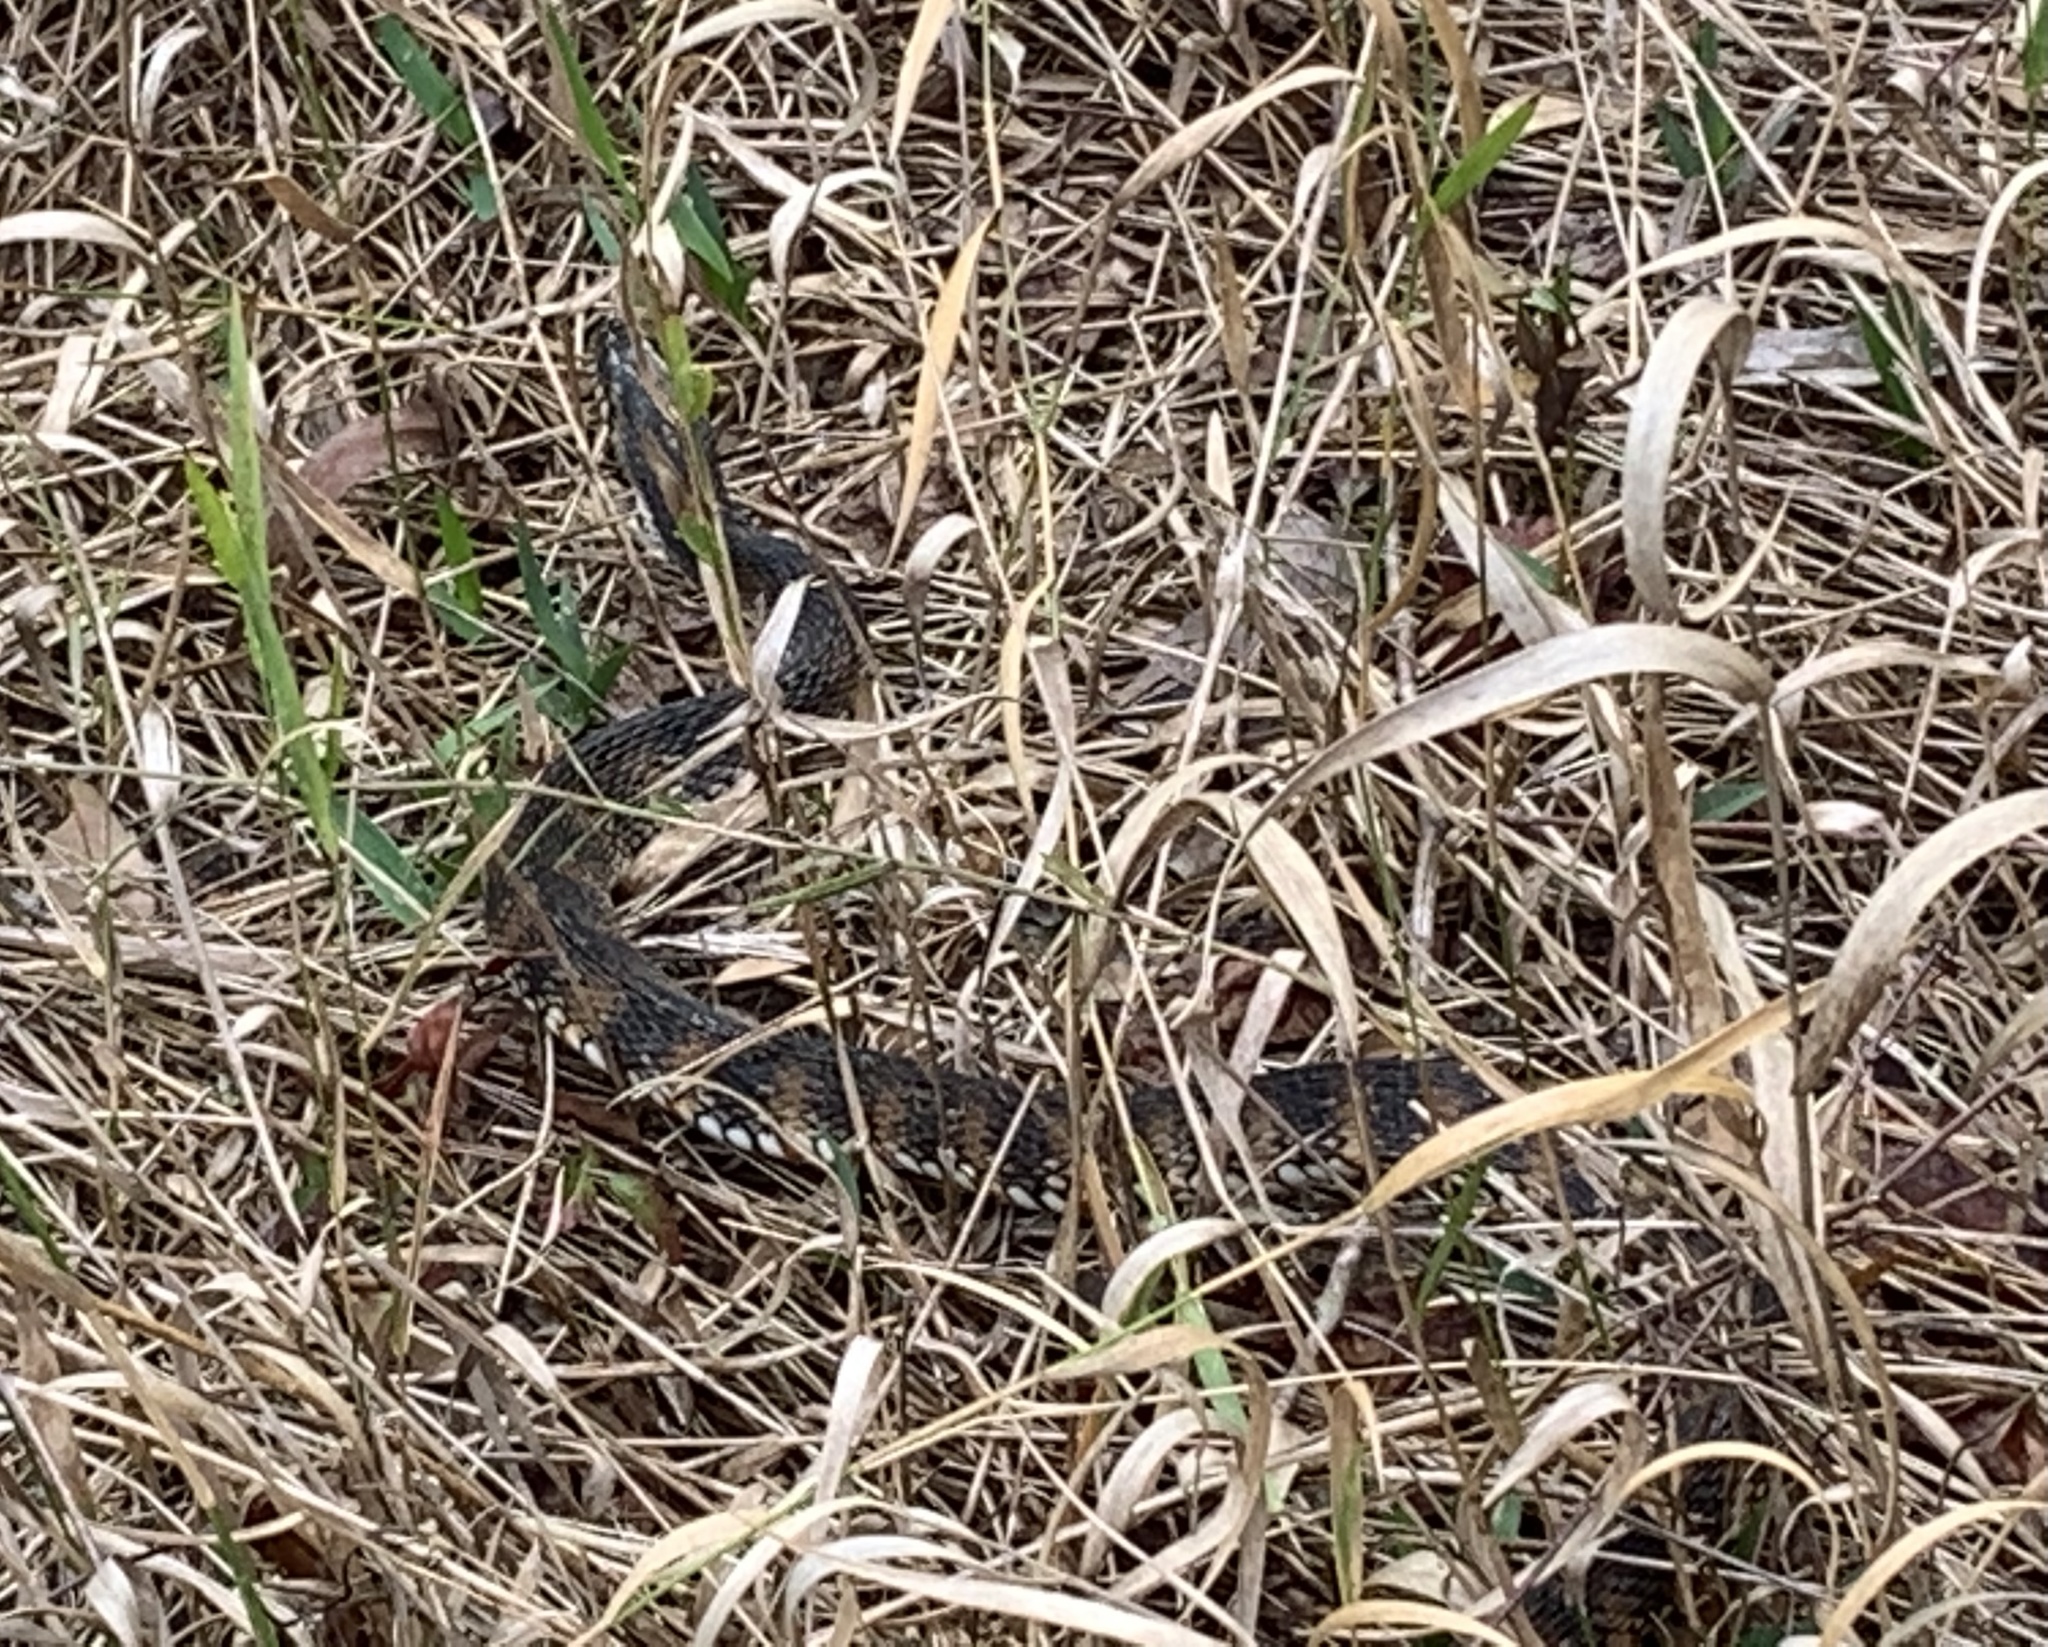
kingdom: Animalia
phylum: Chordata
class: Squamata
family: Colubridae
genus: Nerodia
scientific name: Nerodia fasciata
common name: Southern water snake
